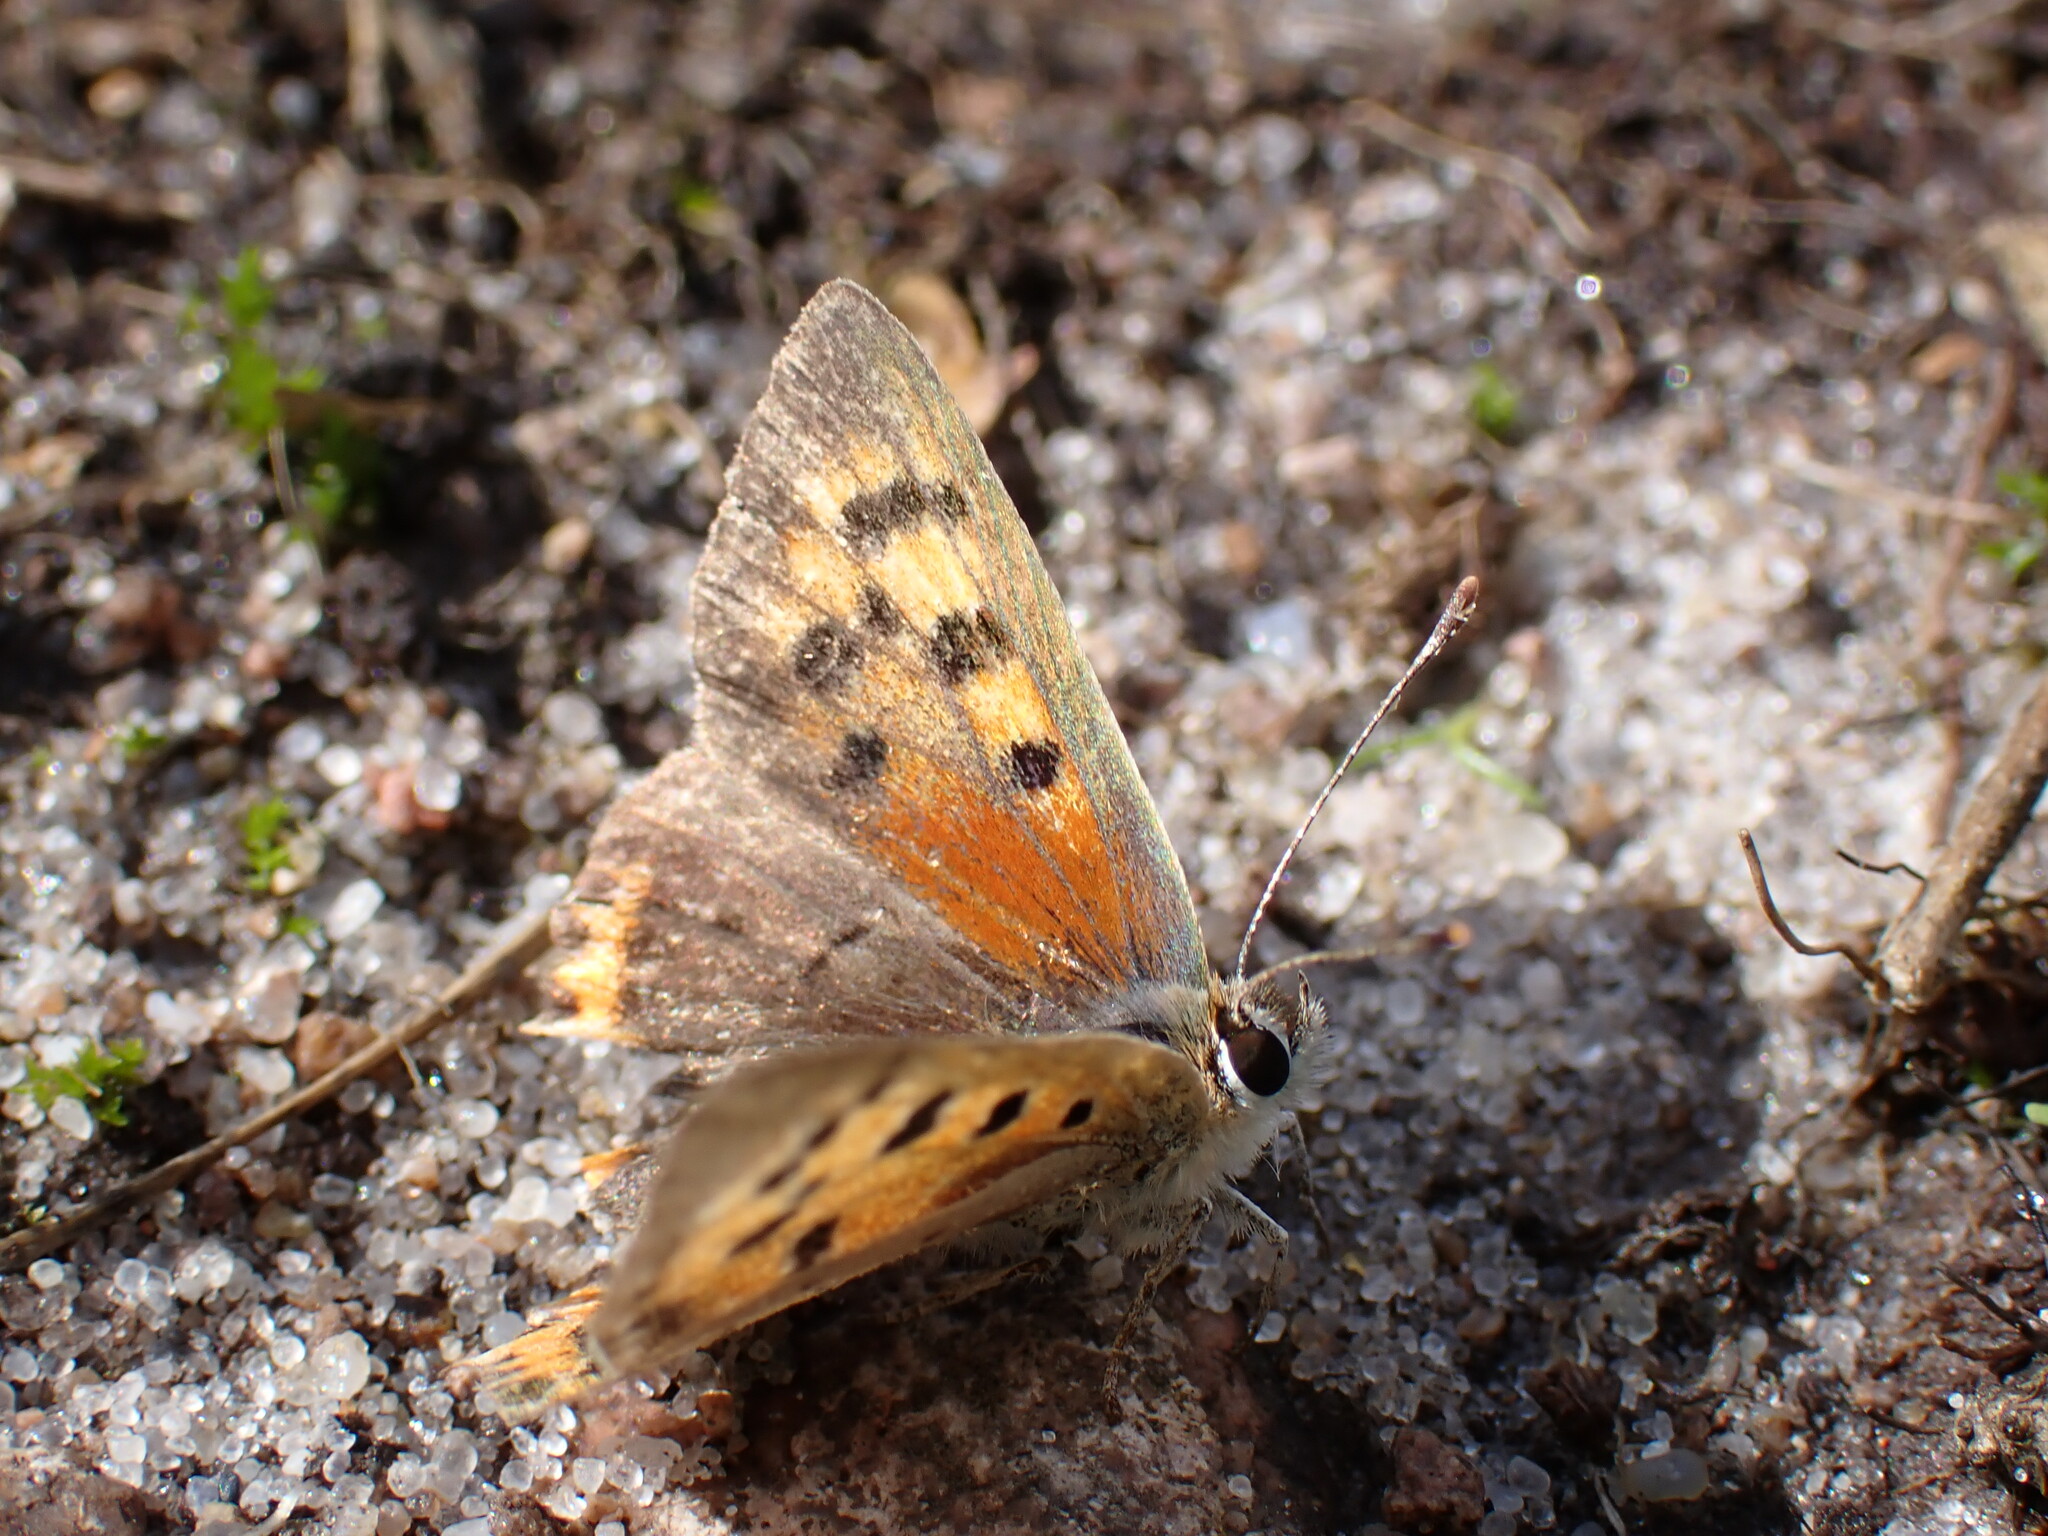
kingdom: Animalia
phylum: Arthropoda
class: Insecta
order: Lepidoptera
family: Lycaenidae
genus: Lycaena
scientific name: Lycaena phlaeas
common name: Small copper
